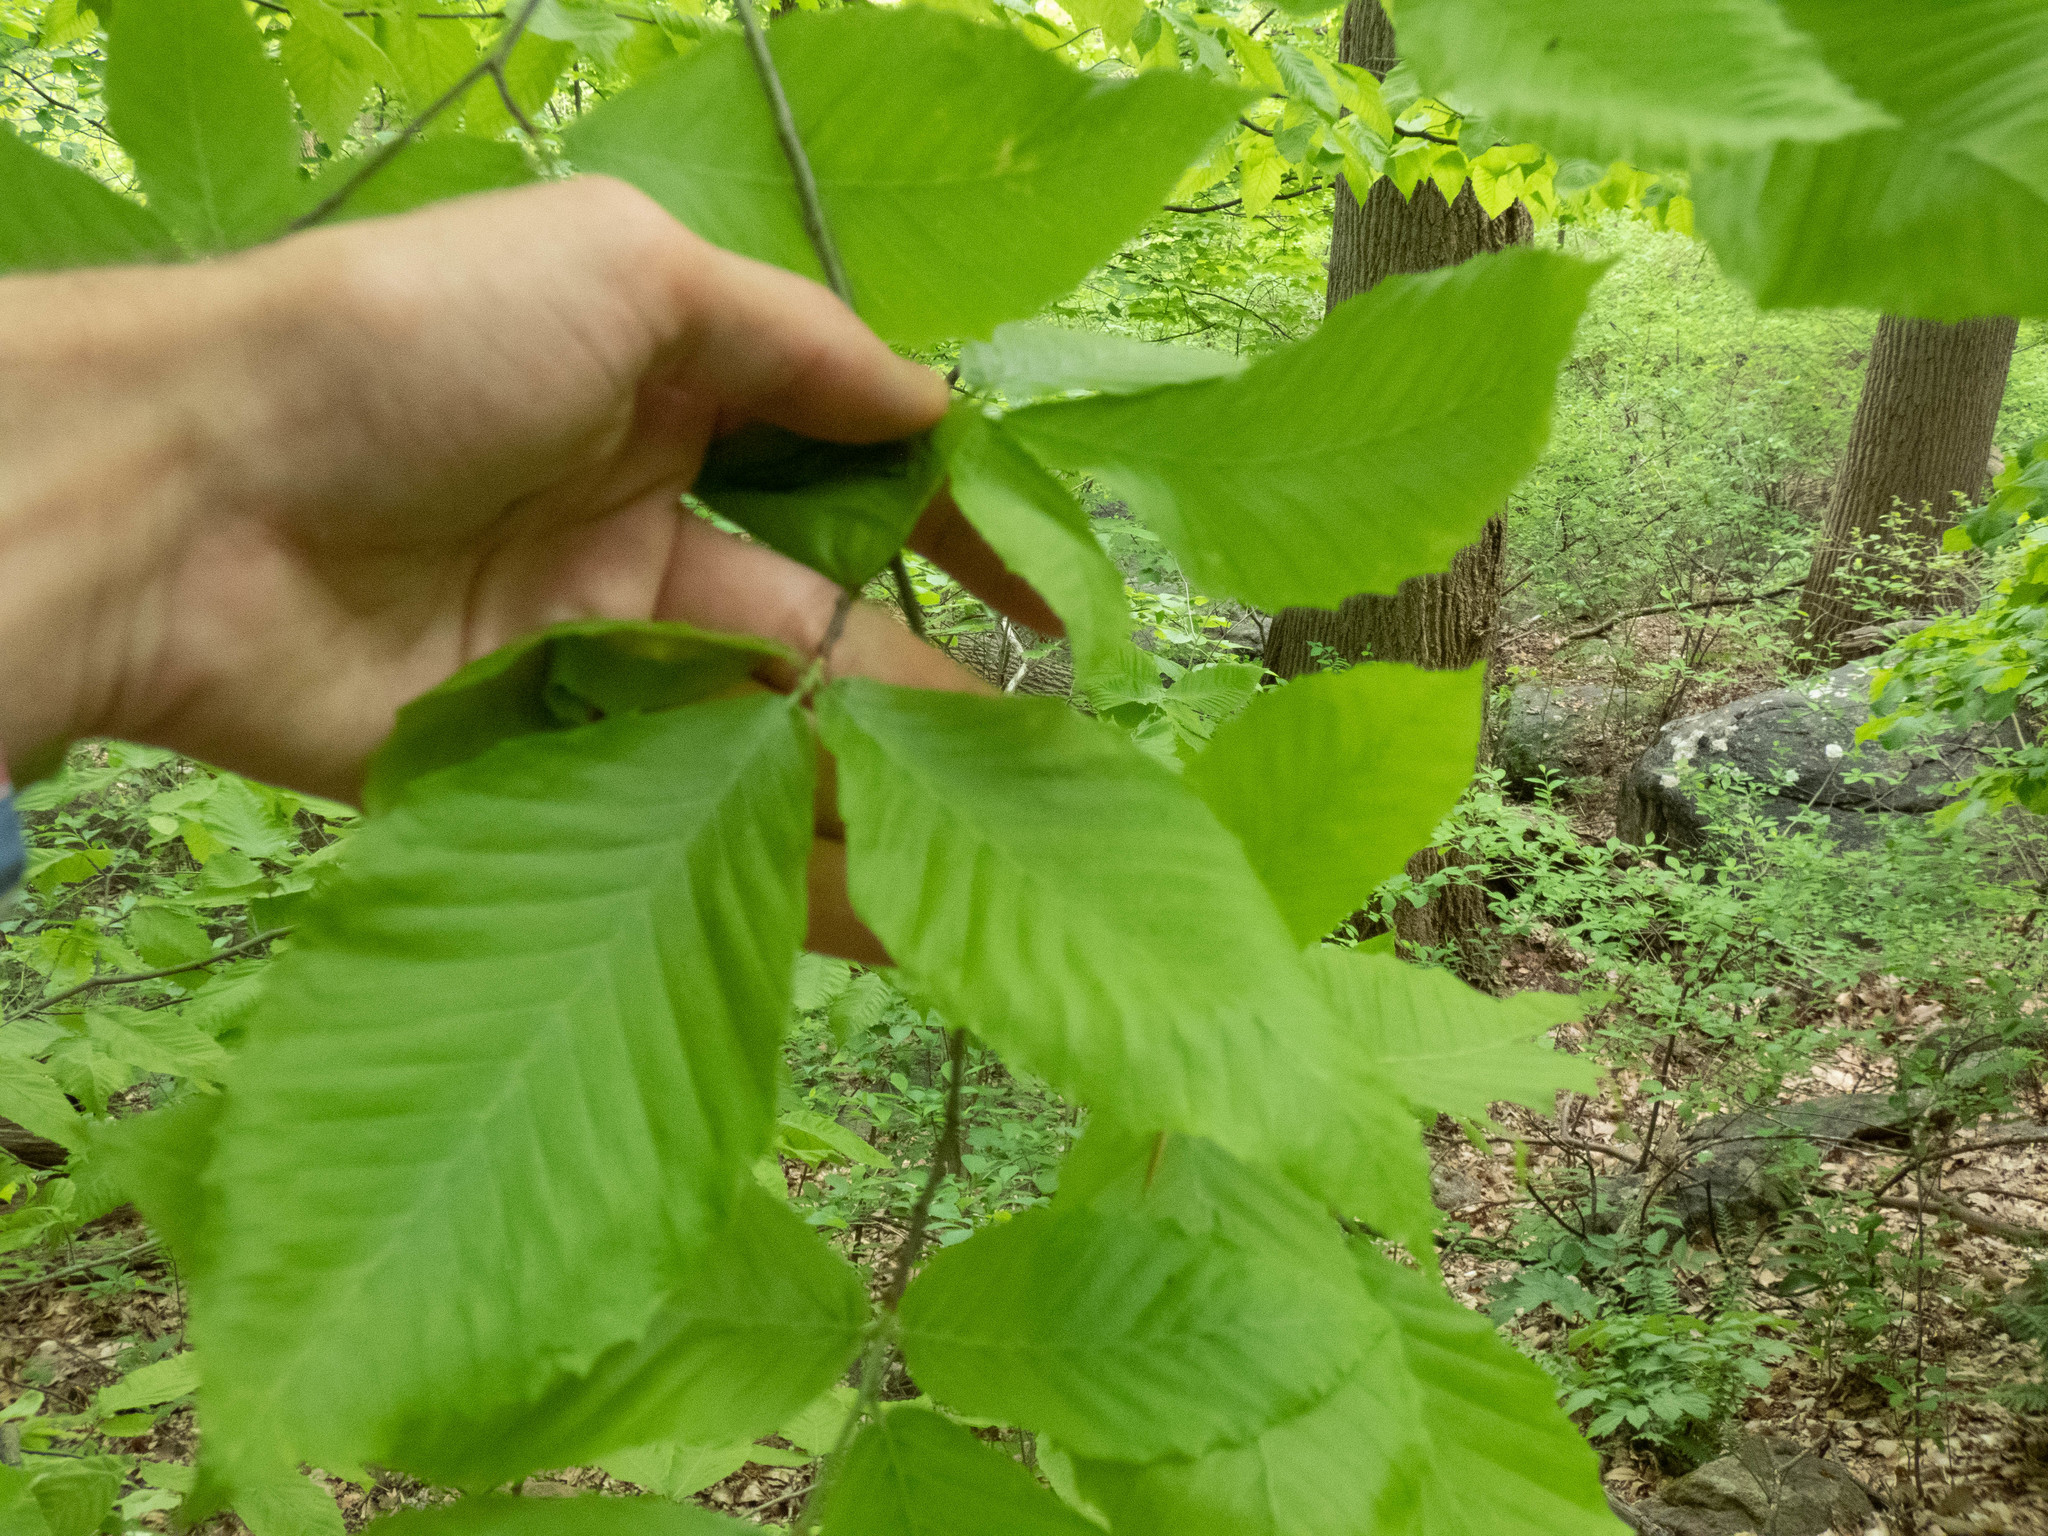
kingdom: Plantae
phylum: Tracheophyta
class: Magnoliopsida
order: Fagales
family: Fagaceae
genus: Fagus
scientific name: Fagus grandifolia
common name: American beech
